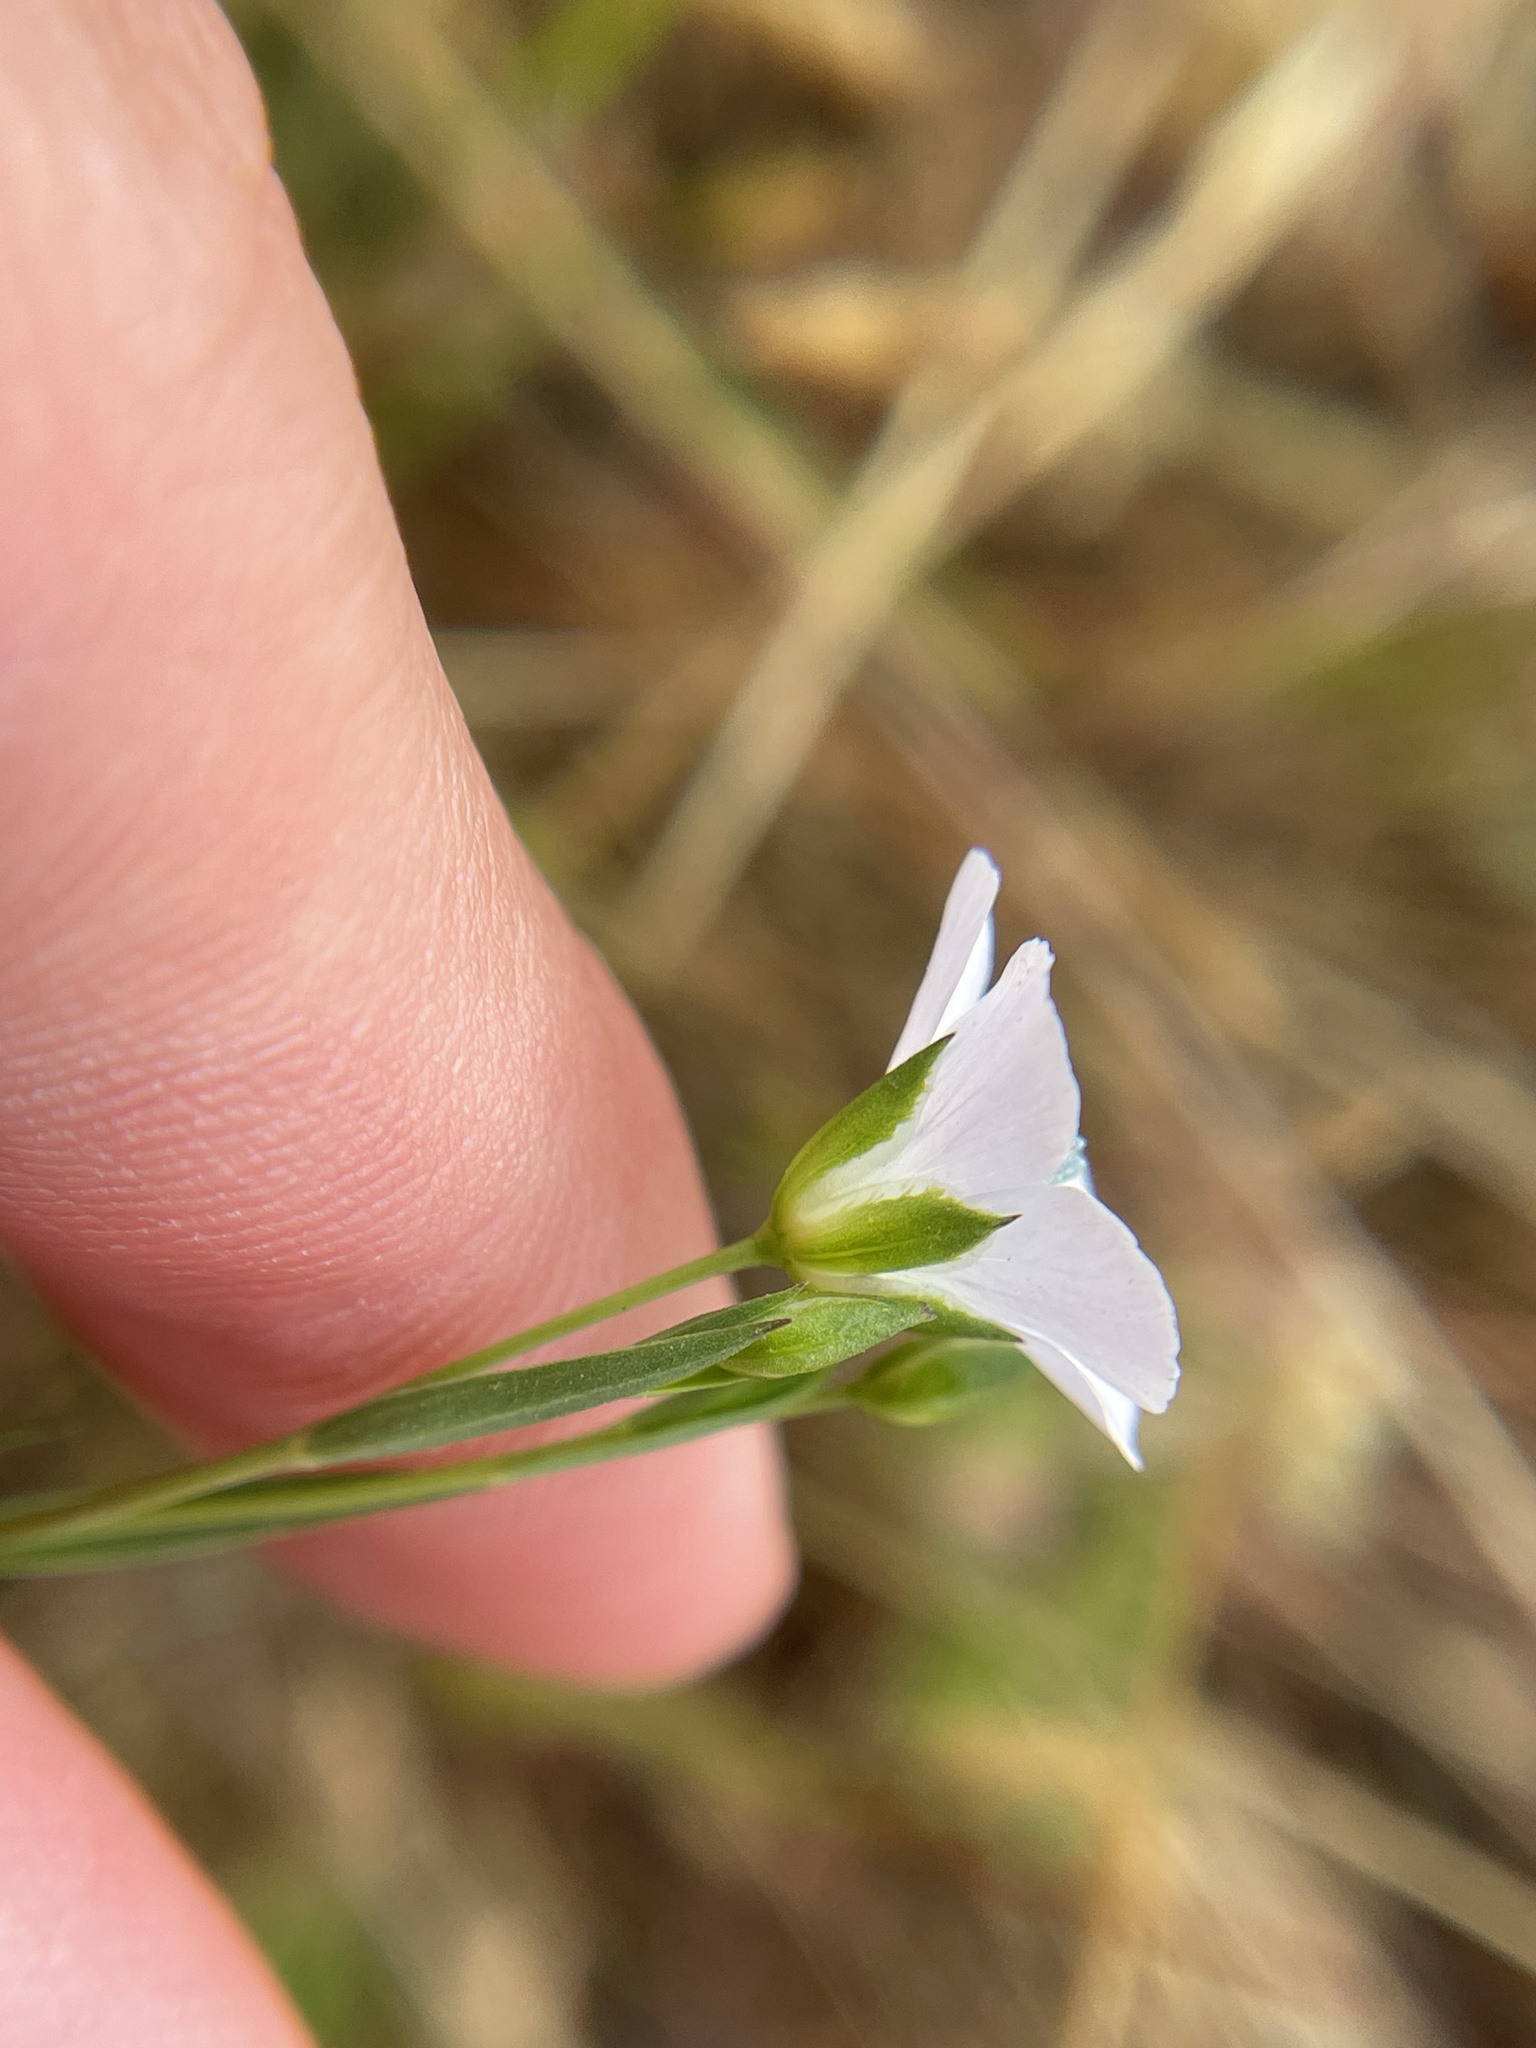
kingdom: Plantae
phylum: Tracheophyta
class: Magnoliopsida
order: Malpighiales
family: Linaceae
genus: Linum
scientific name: Linum bienne
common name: Pale flax
